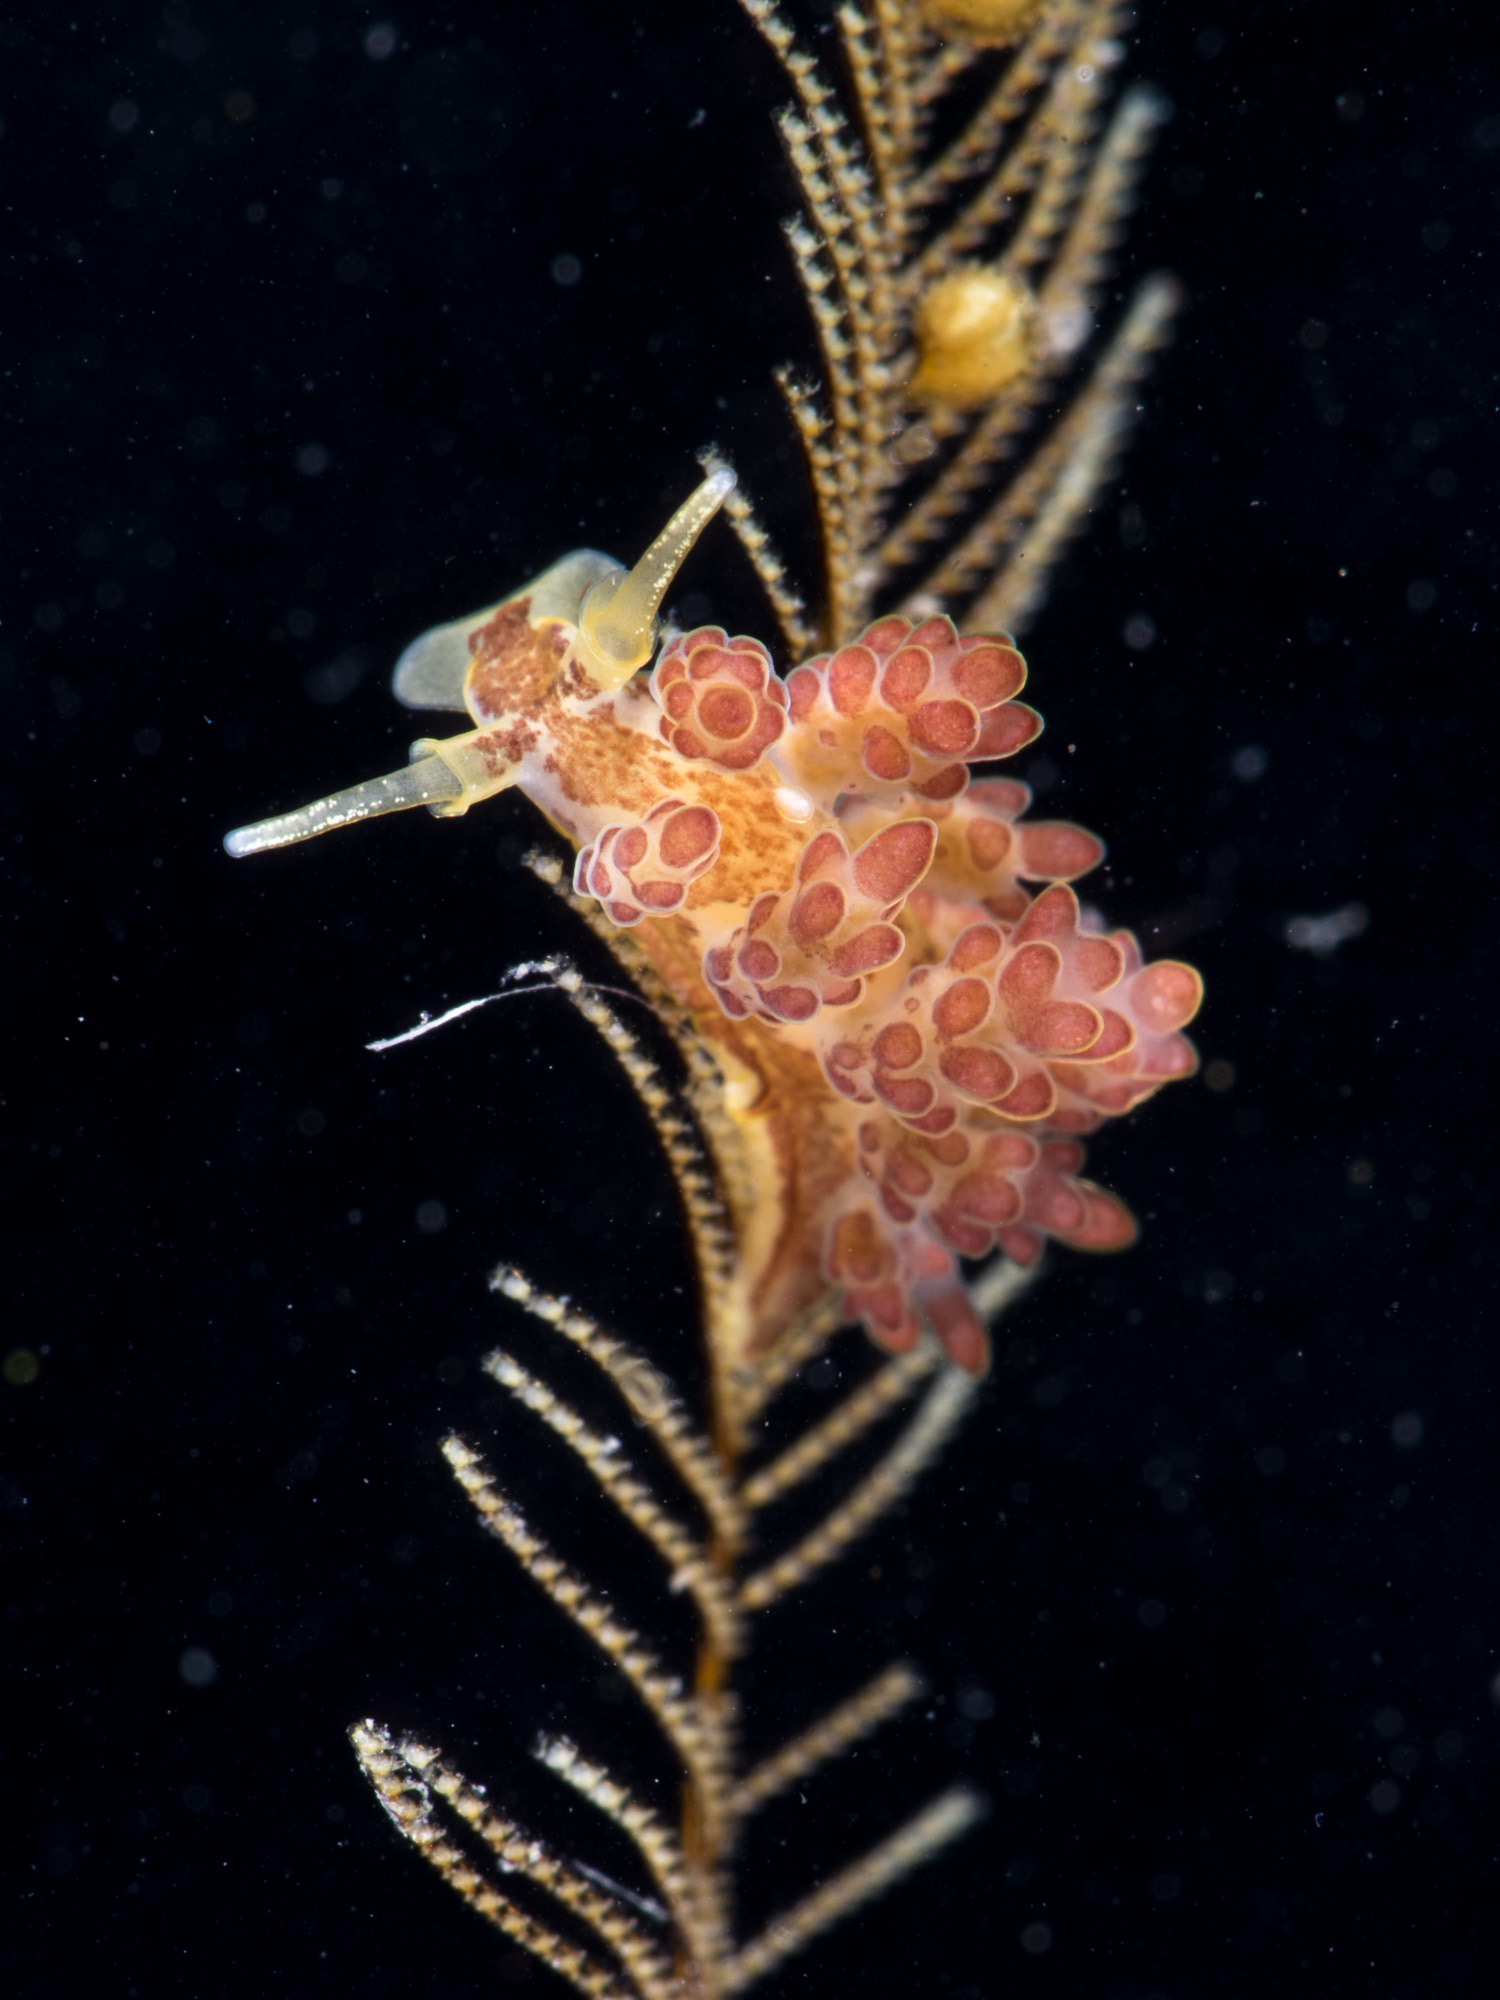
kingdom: Animalia
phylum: Mollusca
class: Gastropoda
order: Nudibranchia
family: Dotidae
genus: Doto
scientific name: Doto floridicola
